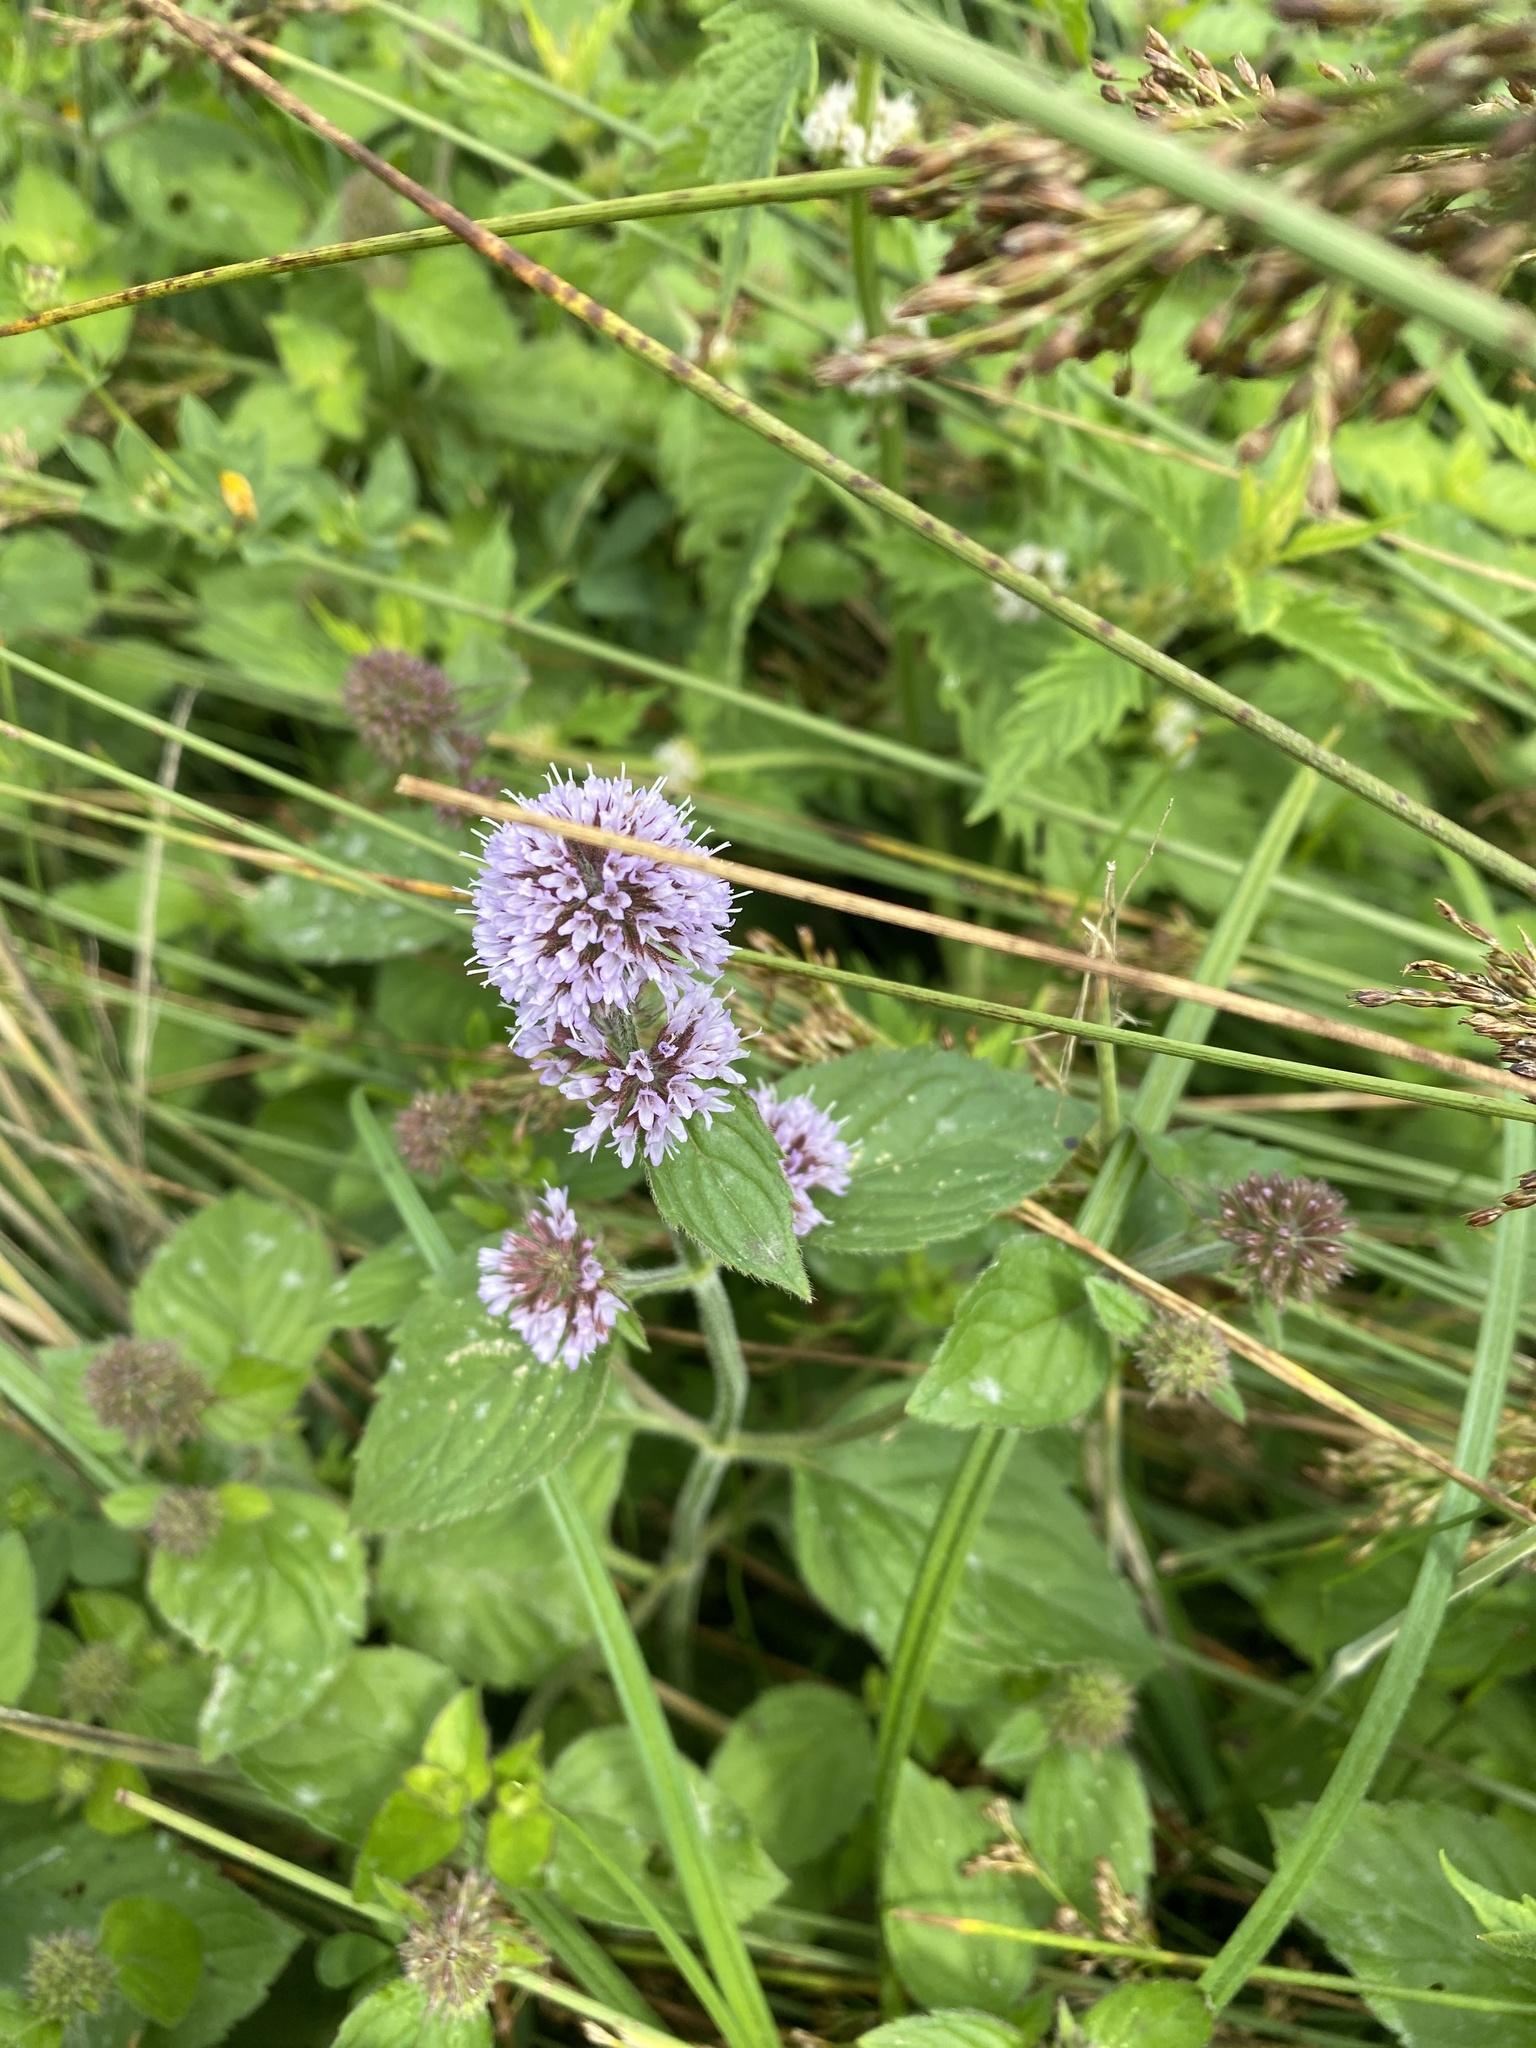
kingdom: Plantae
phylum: Tracheophyta
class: Magnoliopsida
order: Lamiales
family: Lamiaceae
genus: Mentha
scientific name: Mentha aquatica
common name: Water mint
